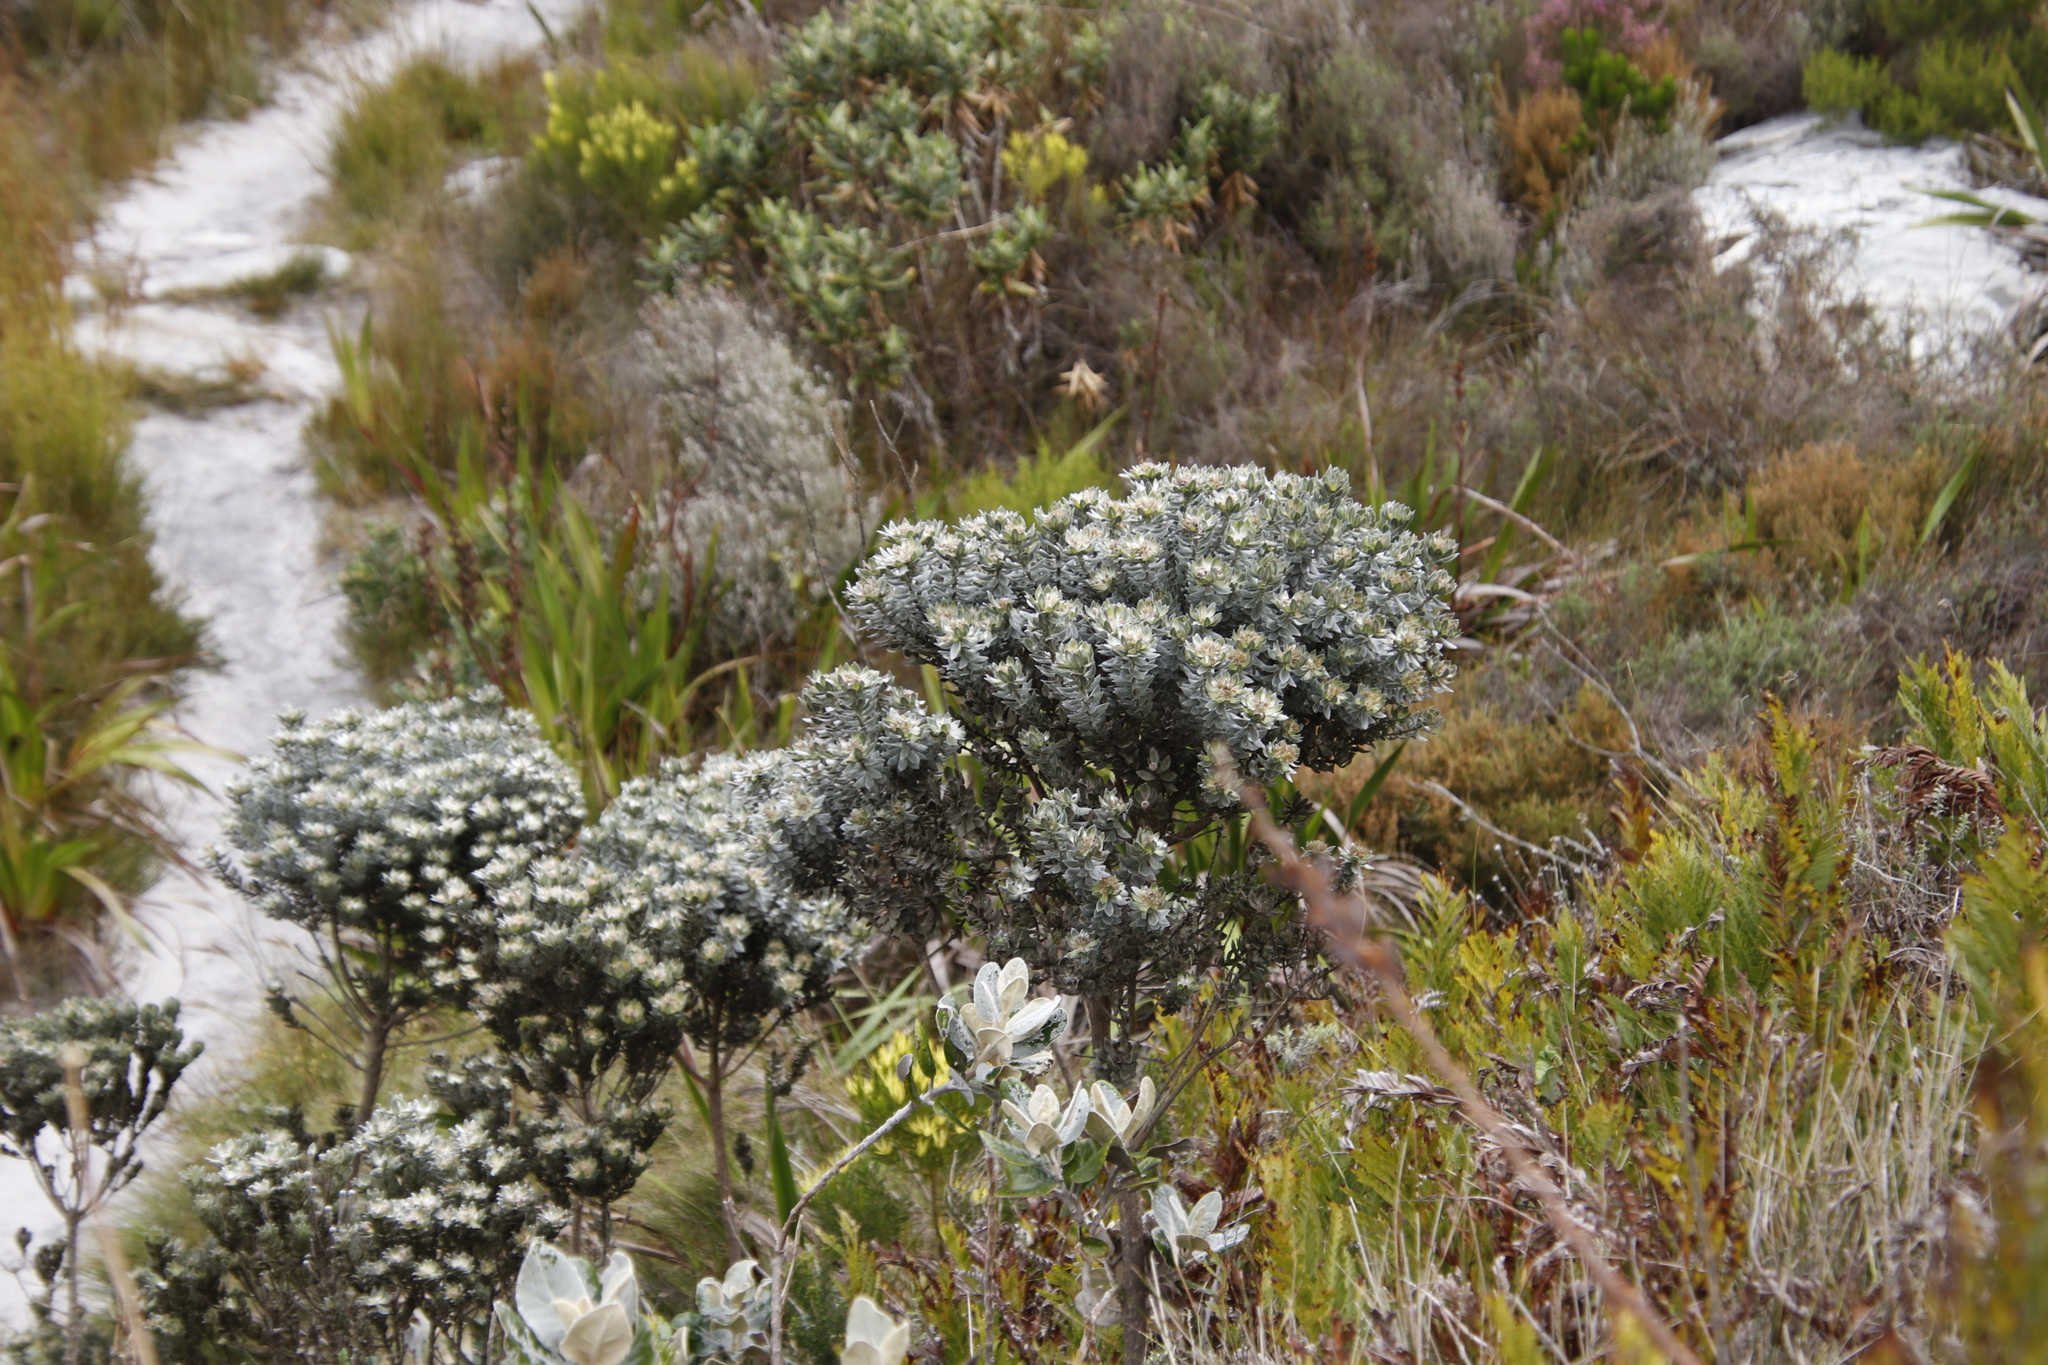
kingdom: Plantae
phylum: Tracheophyta
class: Magnoliopsida
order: Fabales
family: Fabaceae
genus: Xiphotheca
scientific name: Xiphotheca fruticosa
